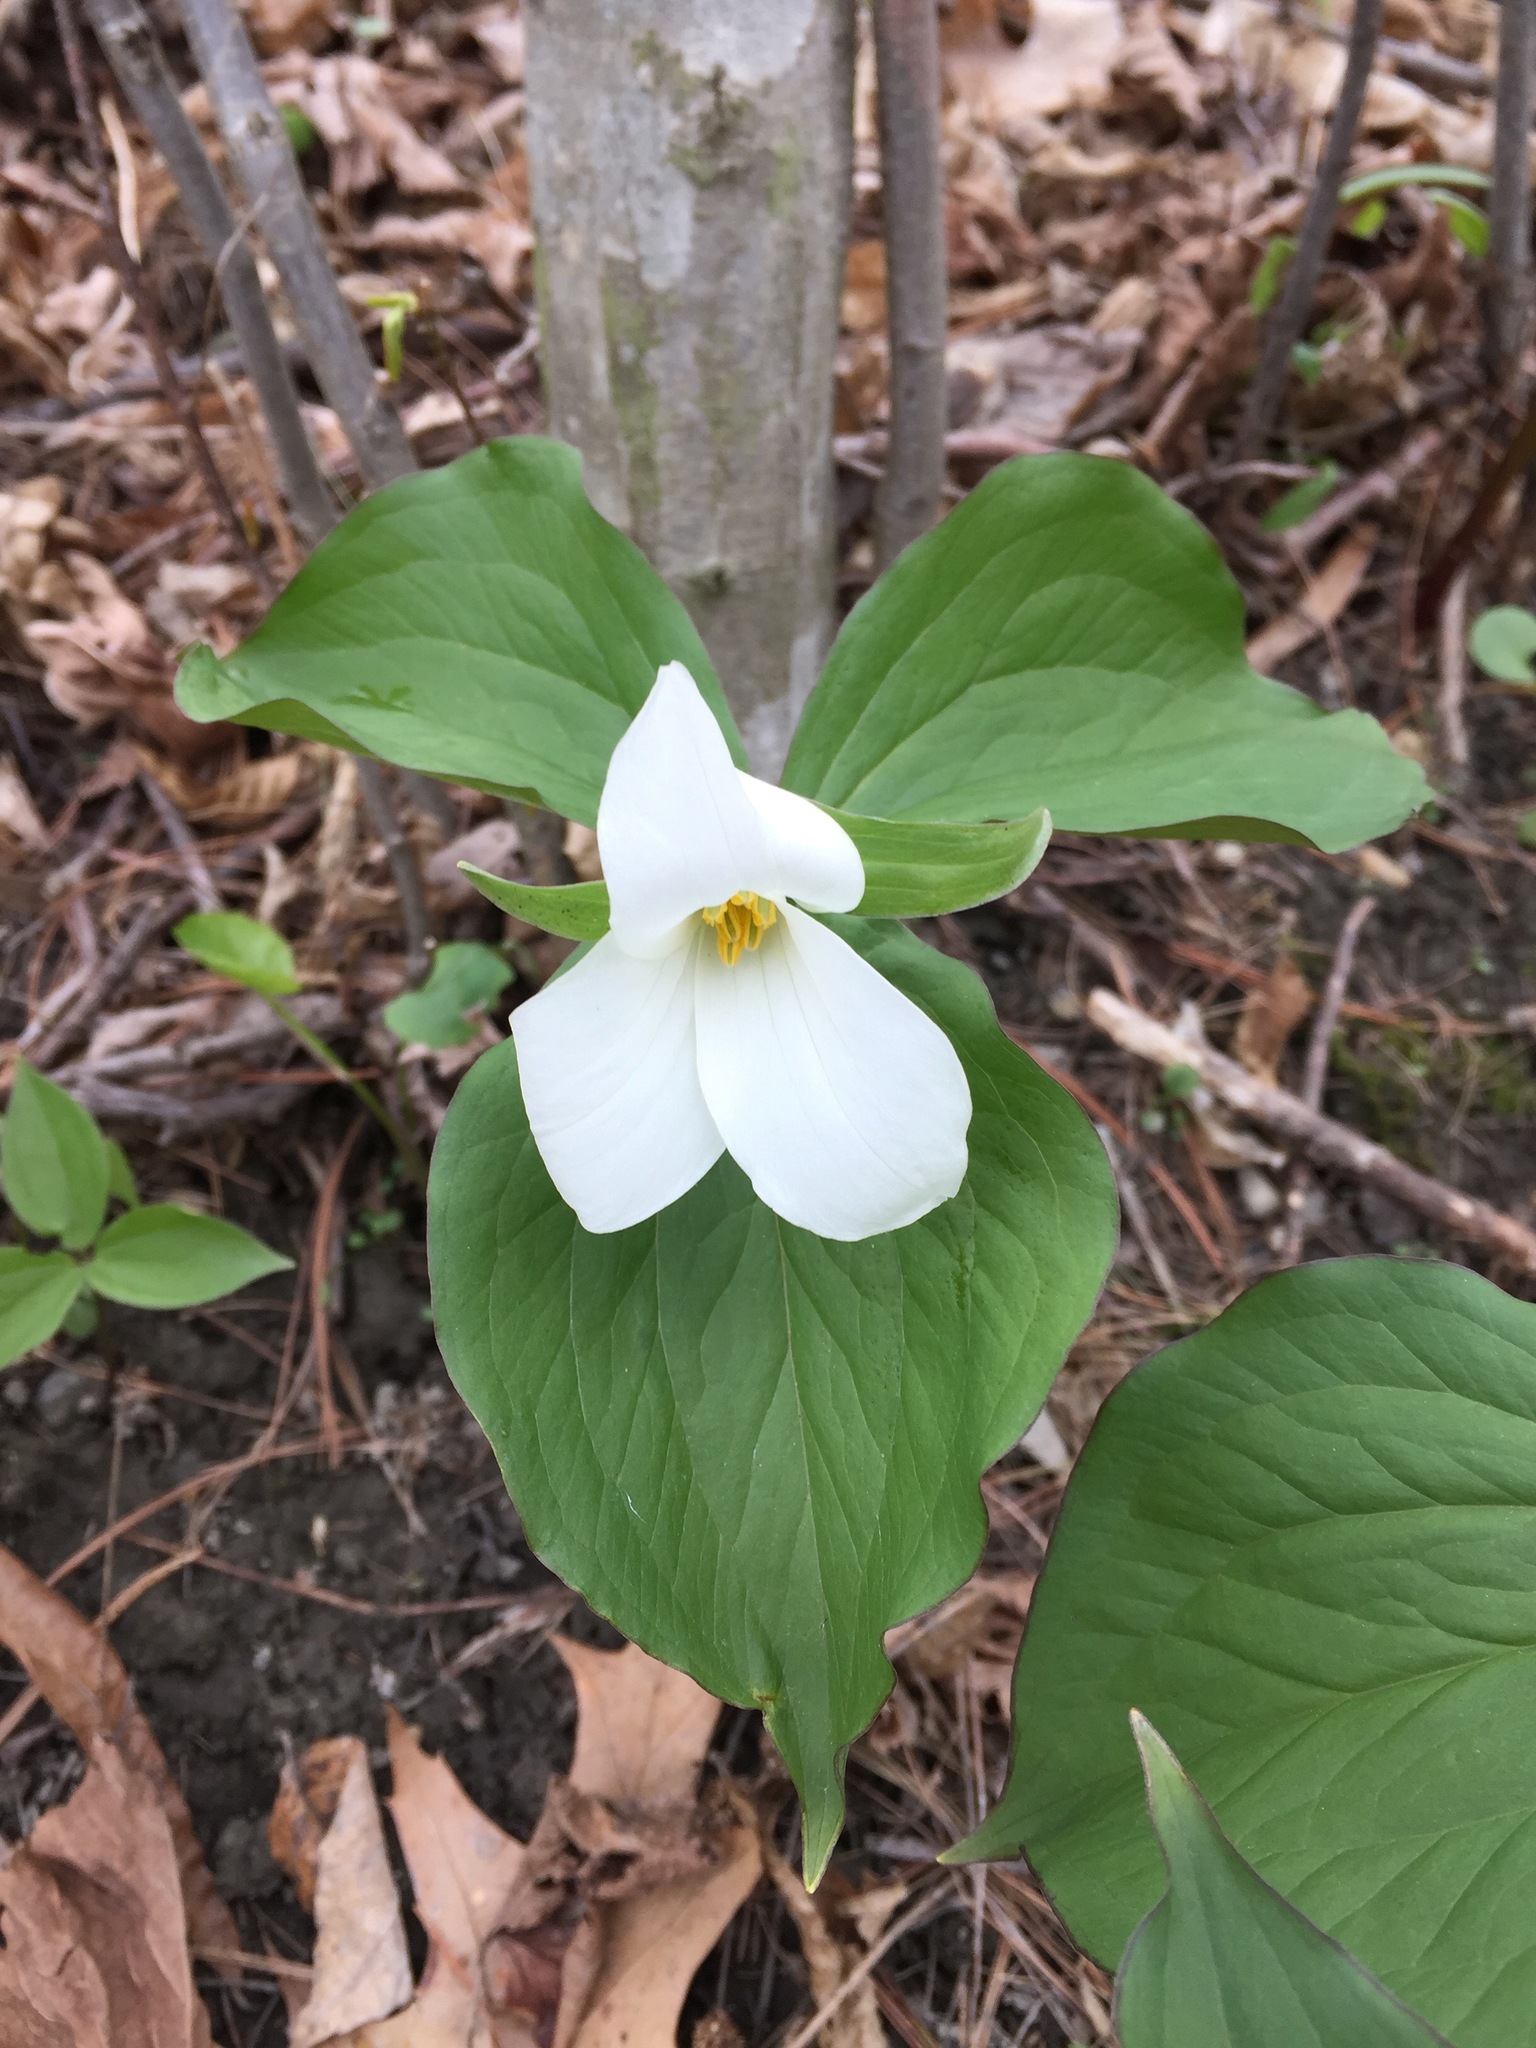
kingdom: Plantae
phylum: Tracheophyta
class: Liliopsida
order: Liliales
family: Melanthiaceae
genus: Trillium
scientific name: Trillium grandiflorum
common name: Great white trillium
